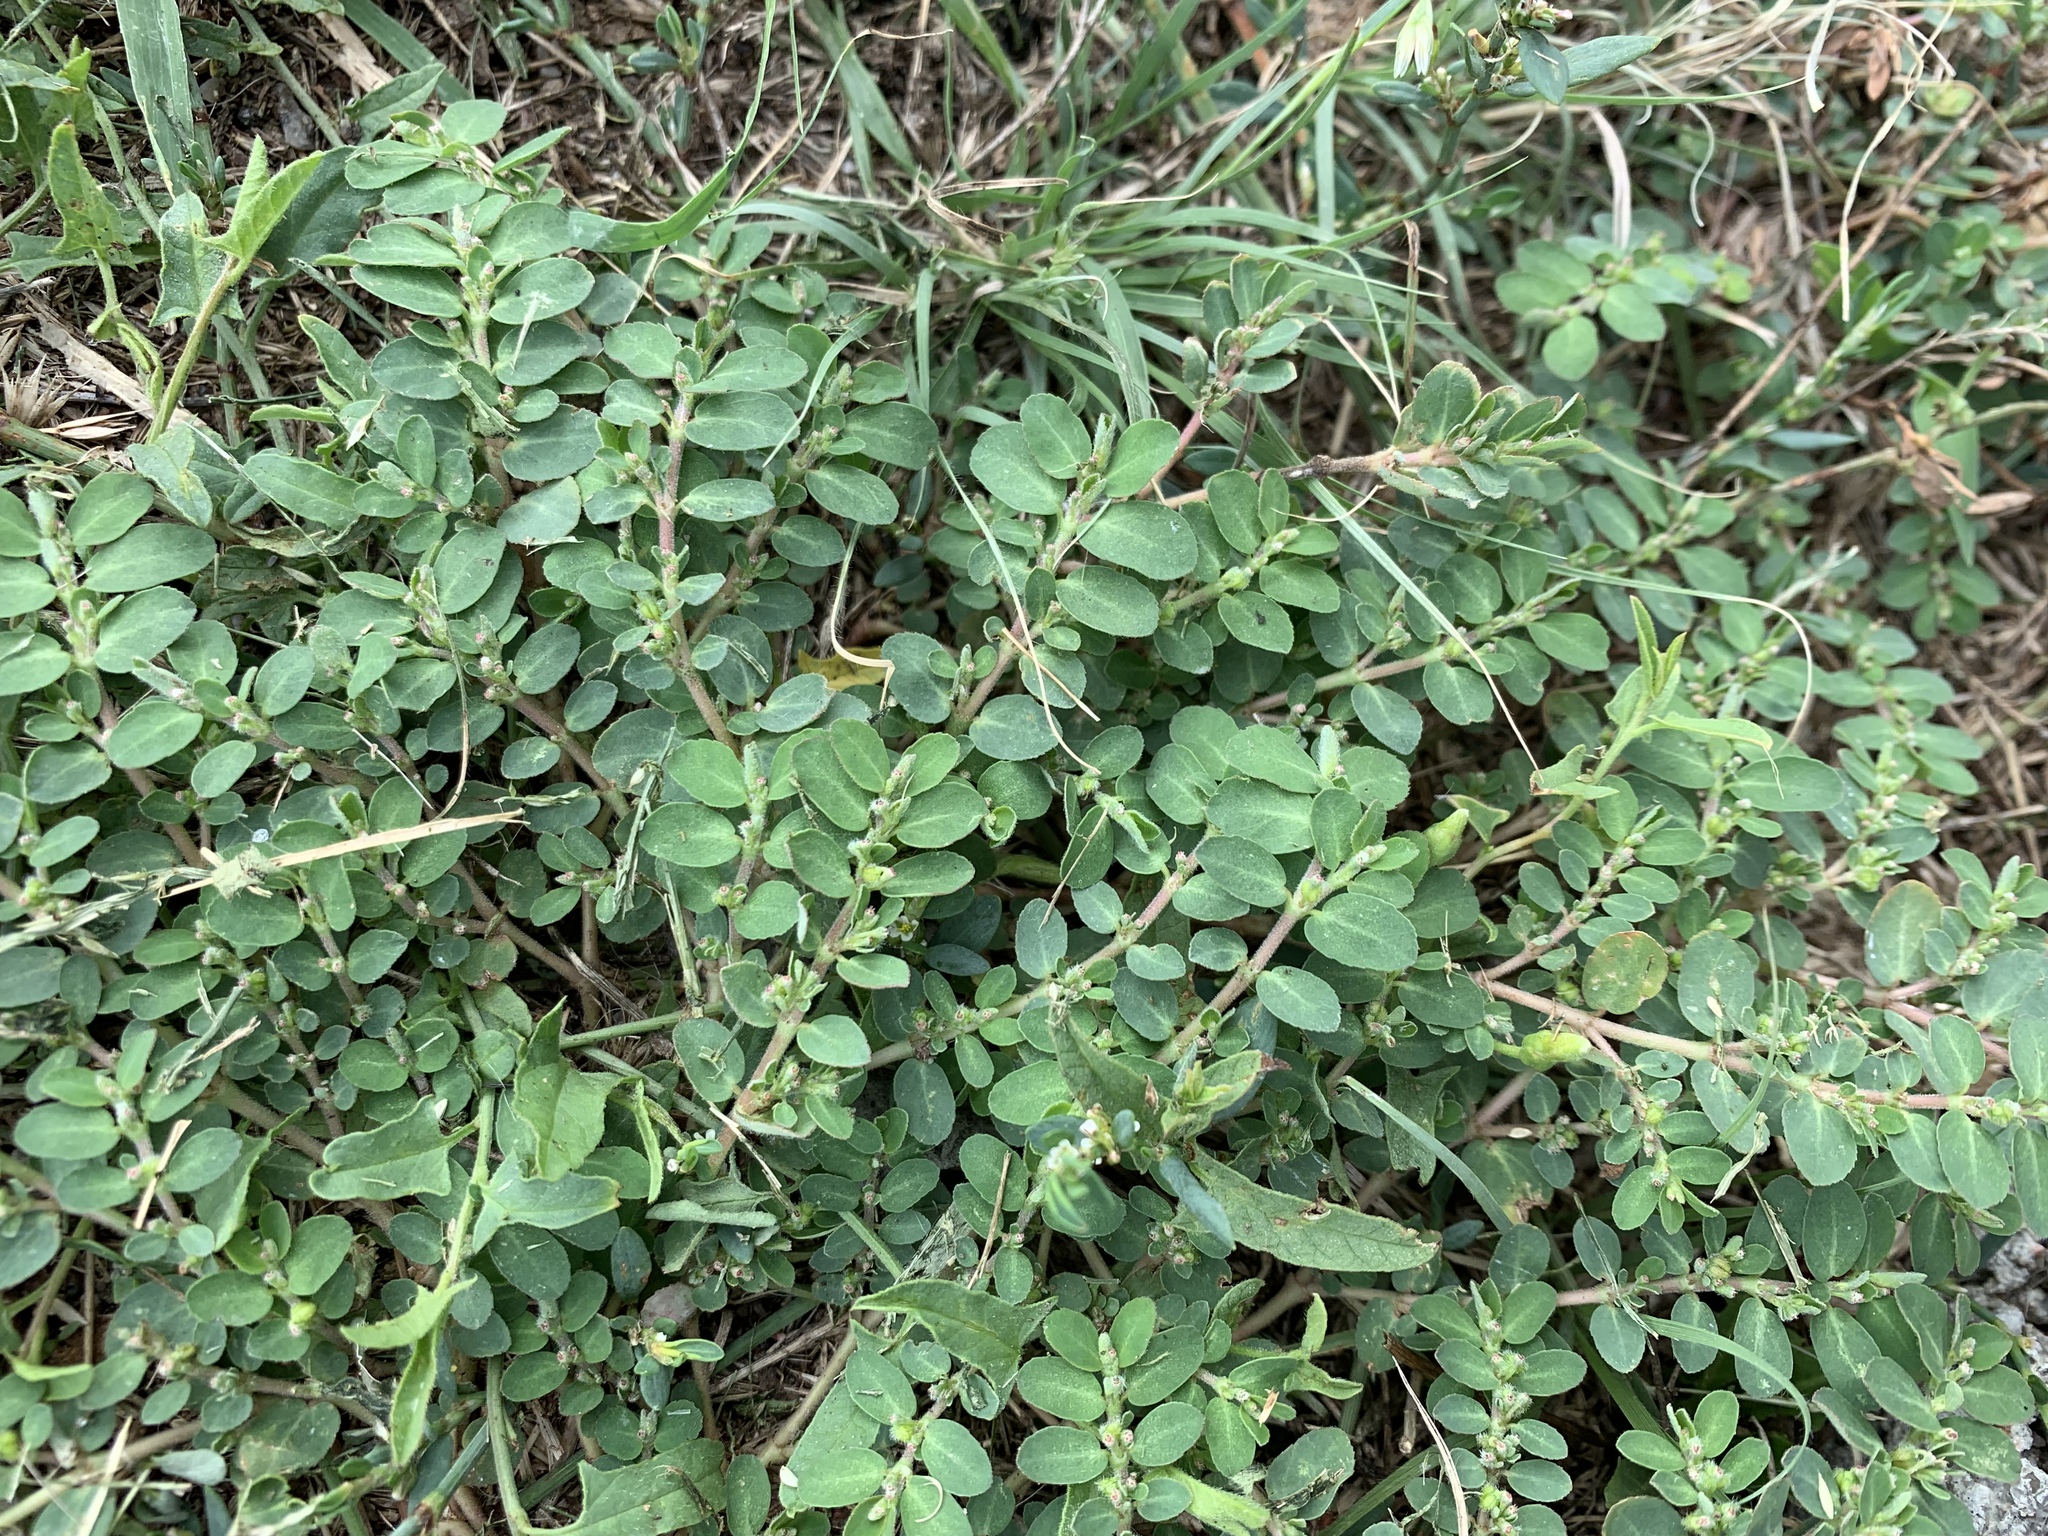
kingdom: Plantae
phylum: Tracheophyta
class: Magnoliopsida
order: Malpighiales
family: Euphorbiaceae
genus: Euphorbia
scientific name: Euphorbia prostrata
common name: Prostrate sandmat
